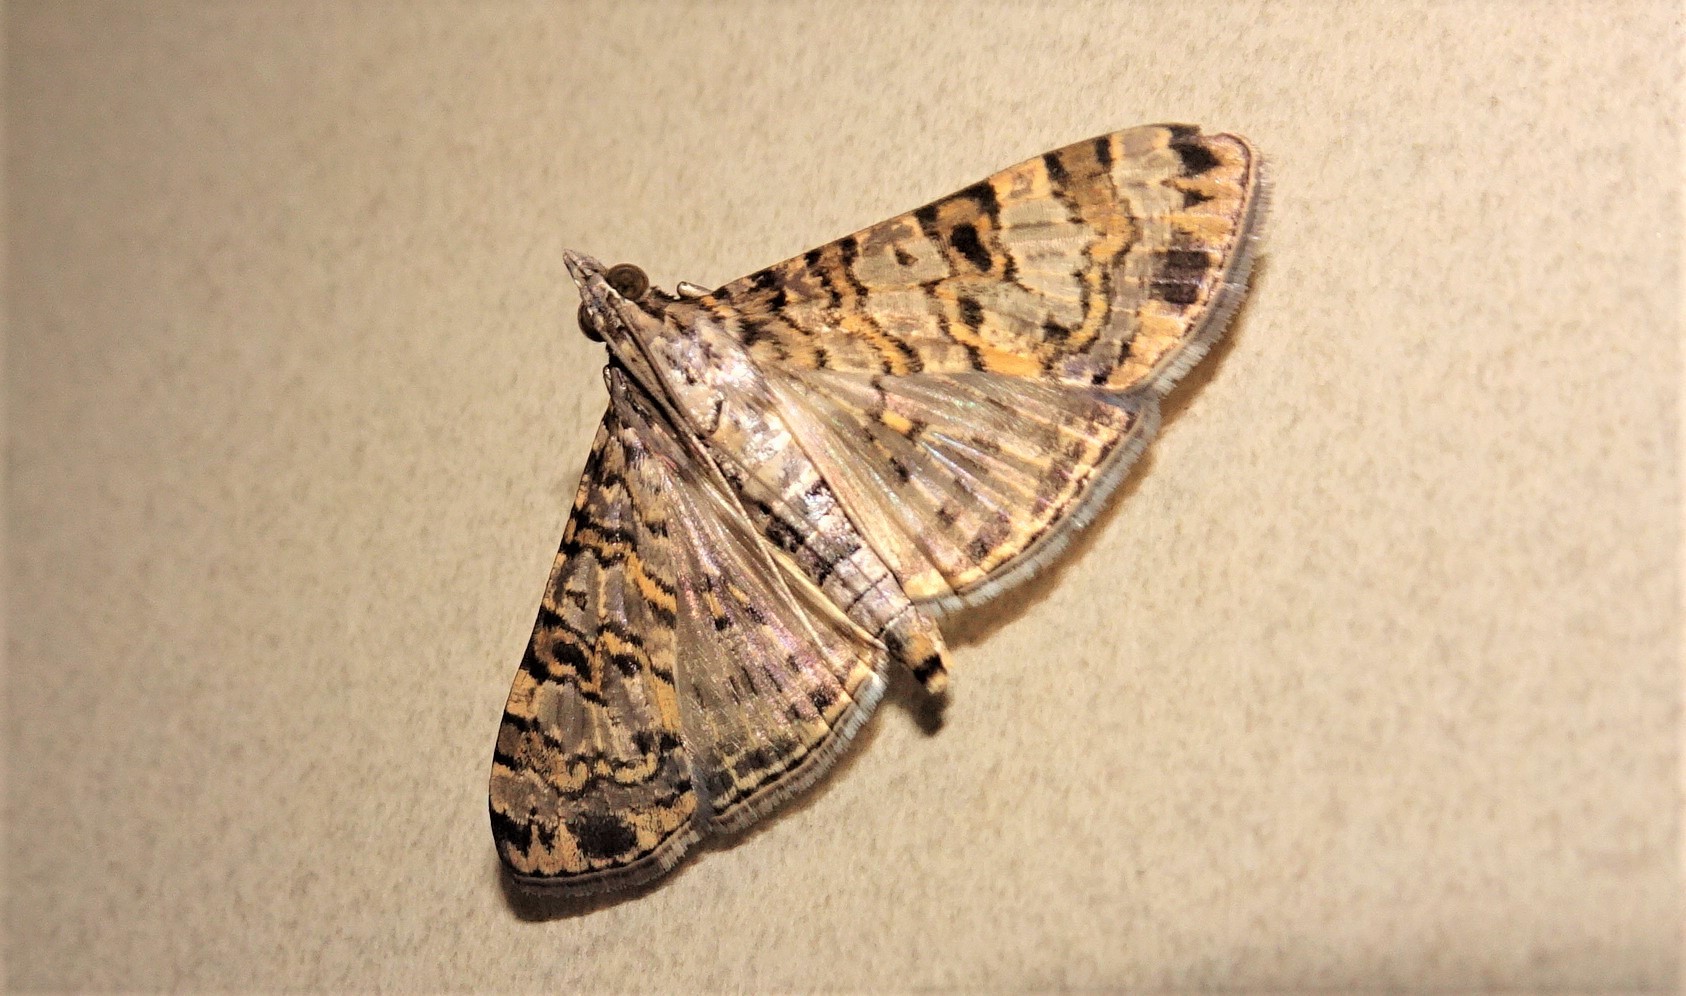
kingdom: Animalia
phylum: Arthropoda
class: Insecta
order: Lepidoptera
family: Crambidae
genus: Dysallacta
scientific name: Dysallacta negatalis
